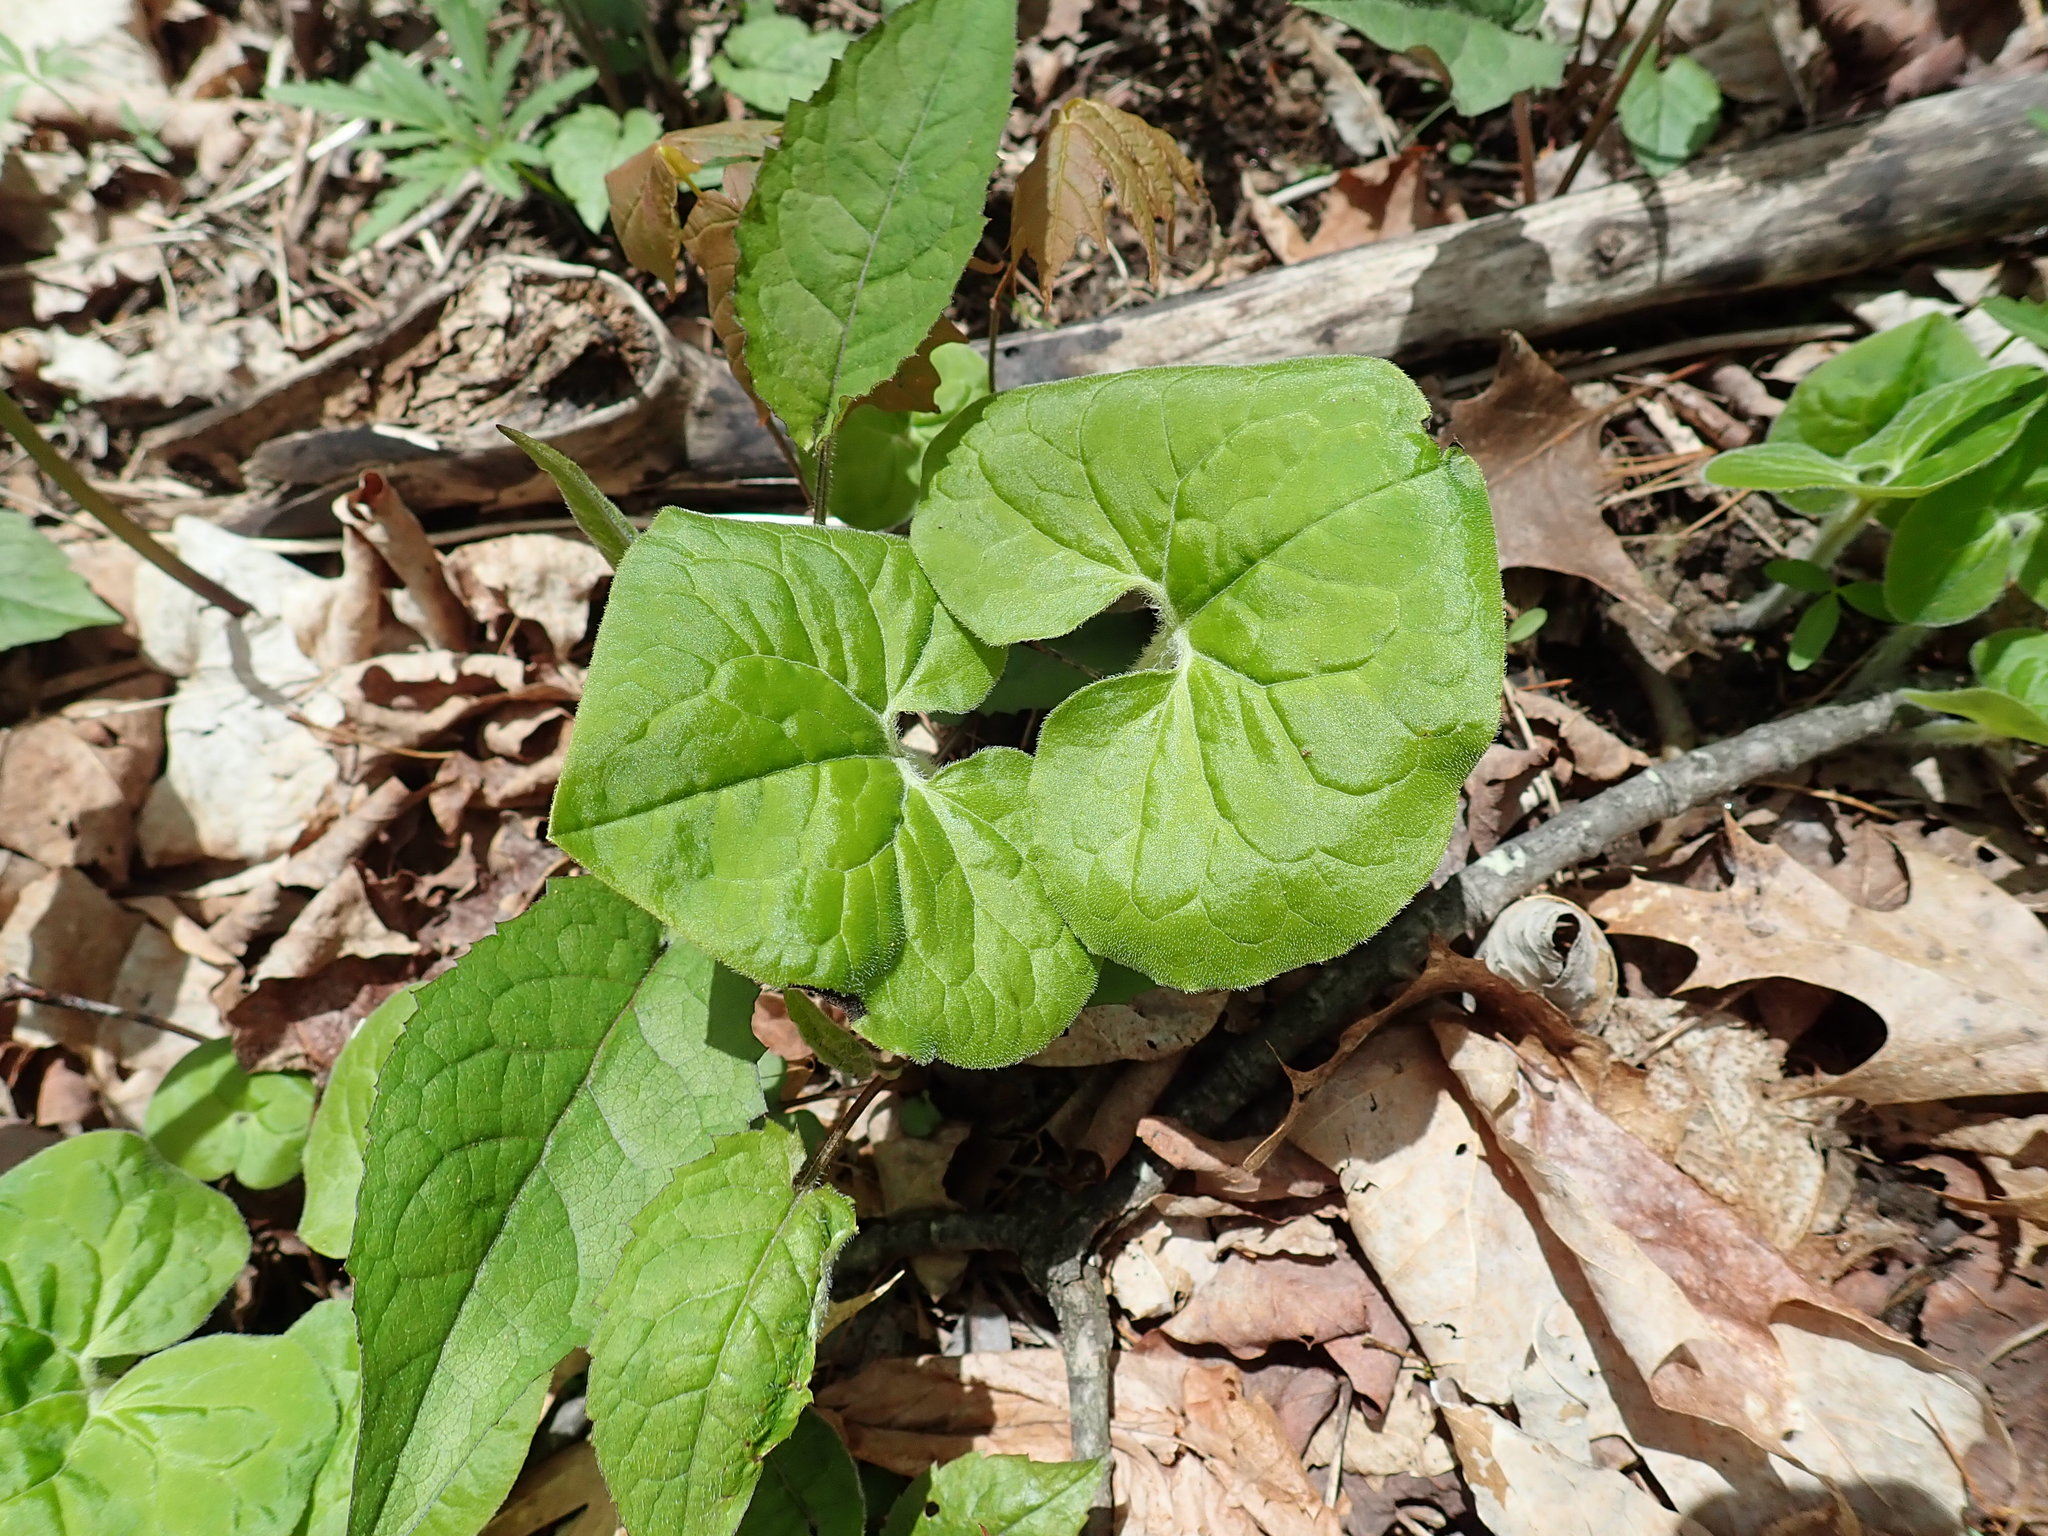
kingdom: Plantae
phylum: Tracheophyta
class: Magnoliopsida
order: Piperales
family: Aristolochiaceae
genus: Asarum
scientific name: Asarum canadense
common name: Wild ginger
